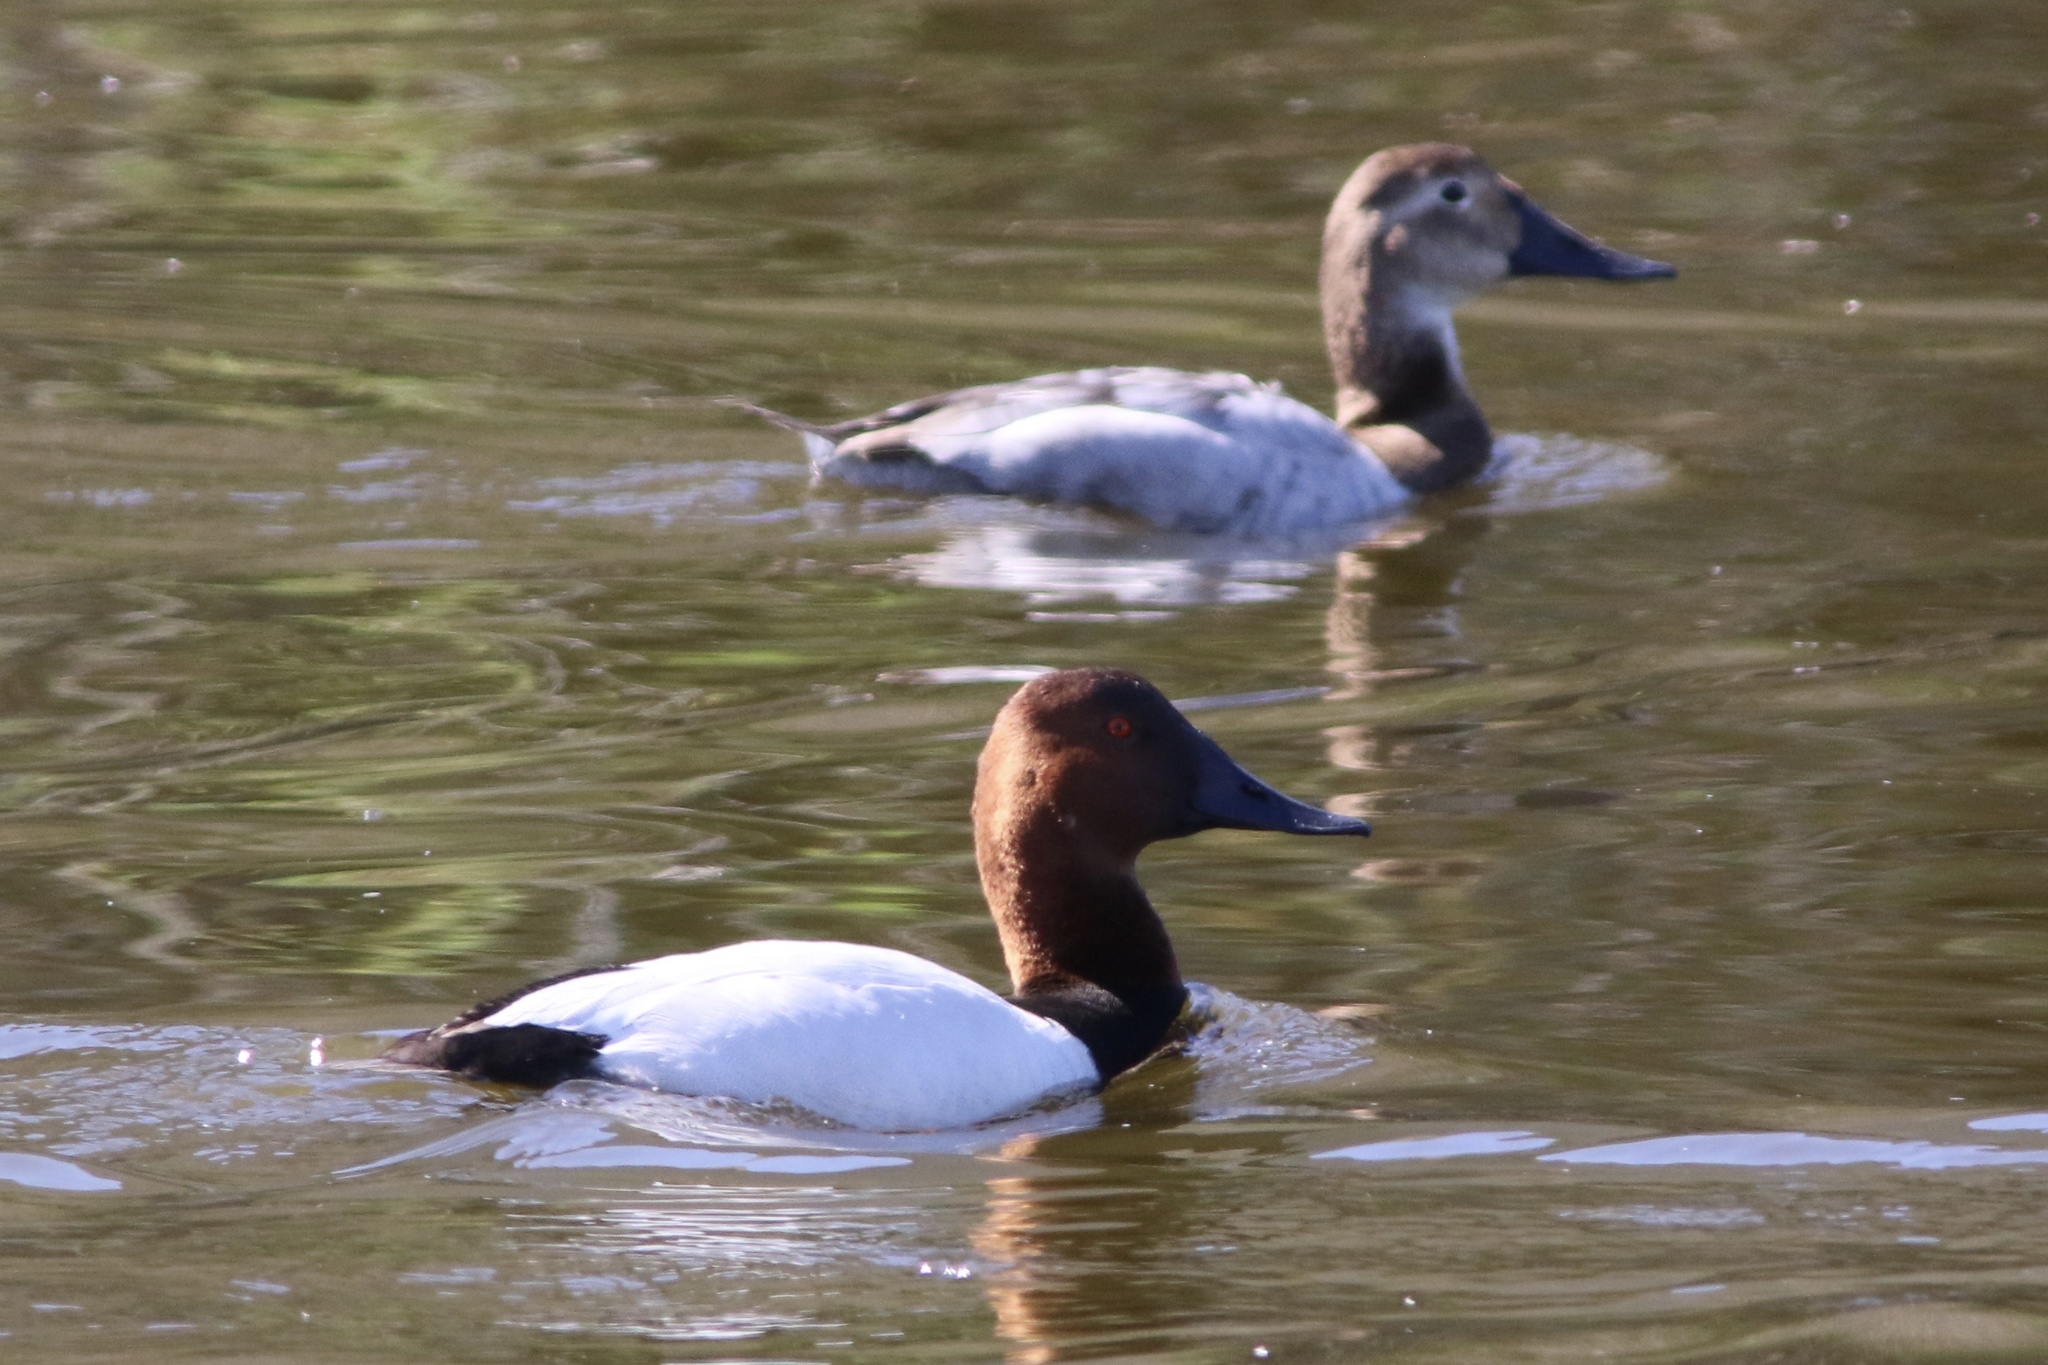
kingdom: Animalia
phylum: Chordata
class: Aves
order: Anseriformes
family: Anatidae
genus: Aythya
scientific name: Aythya valisineria
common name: Canvasback
